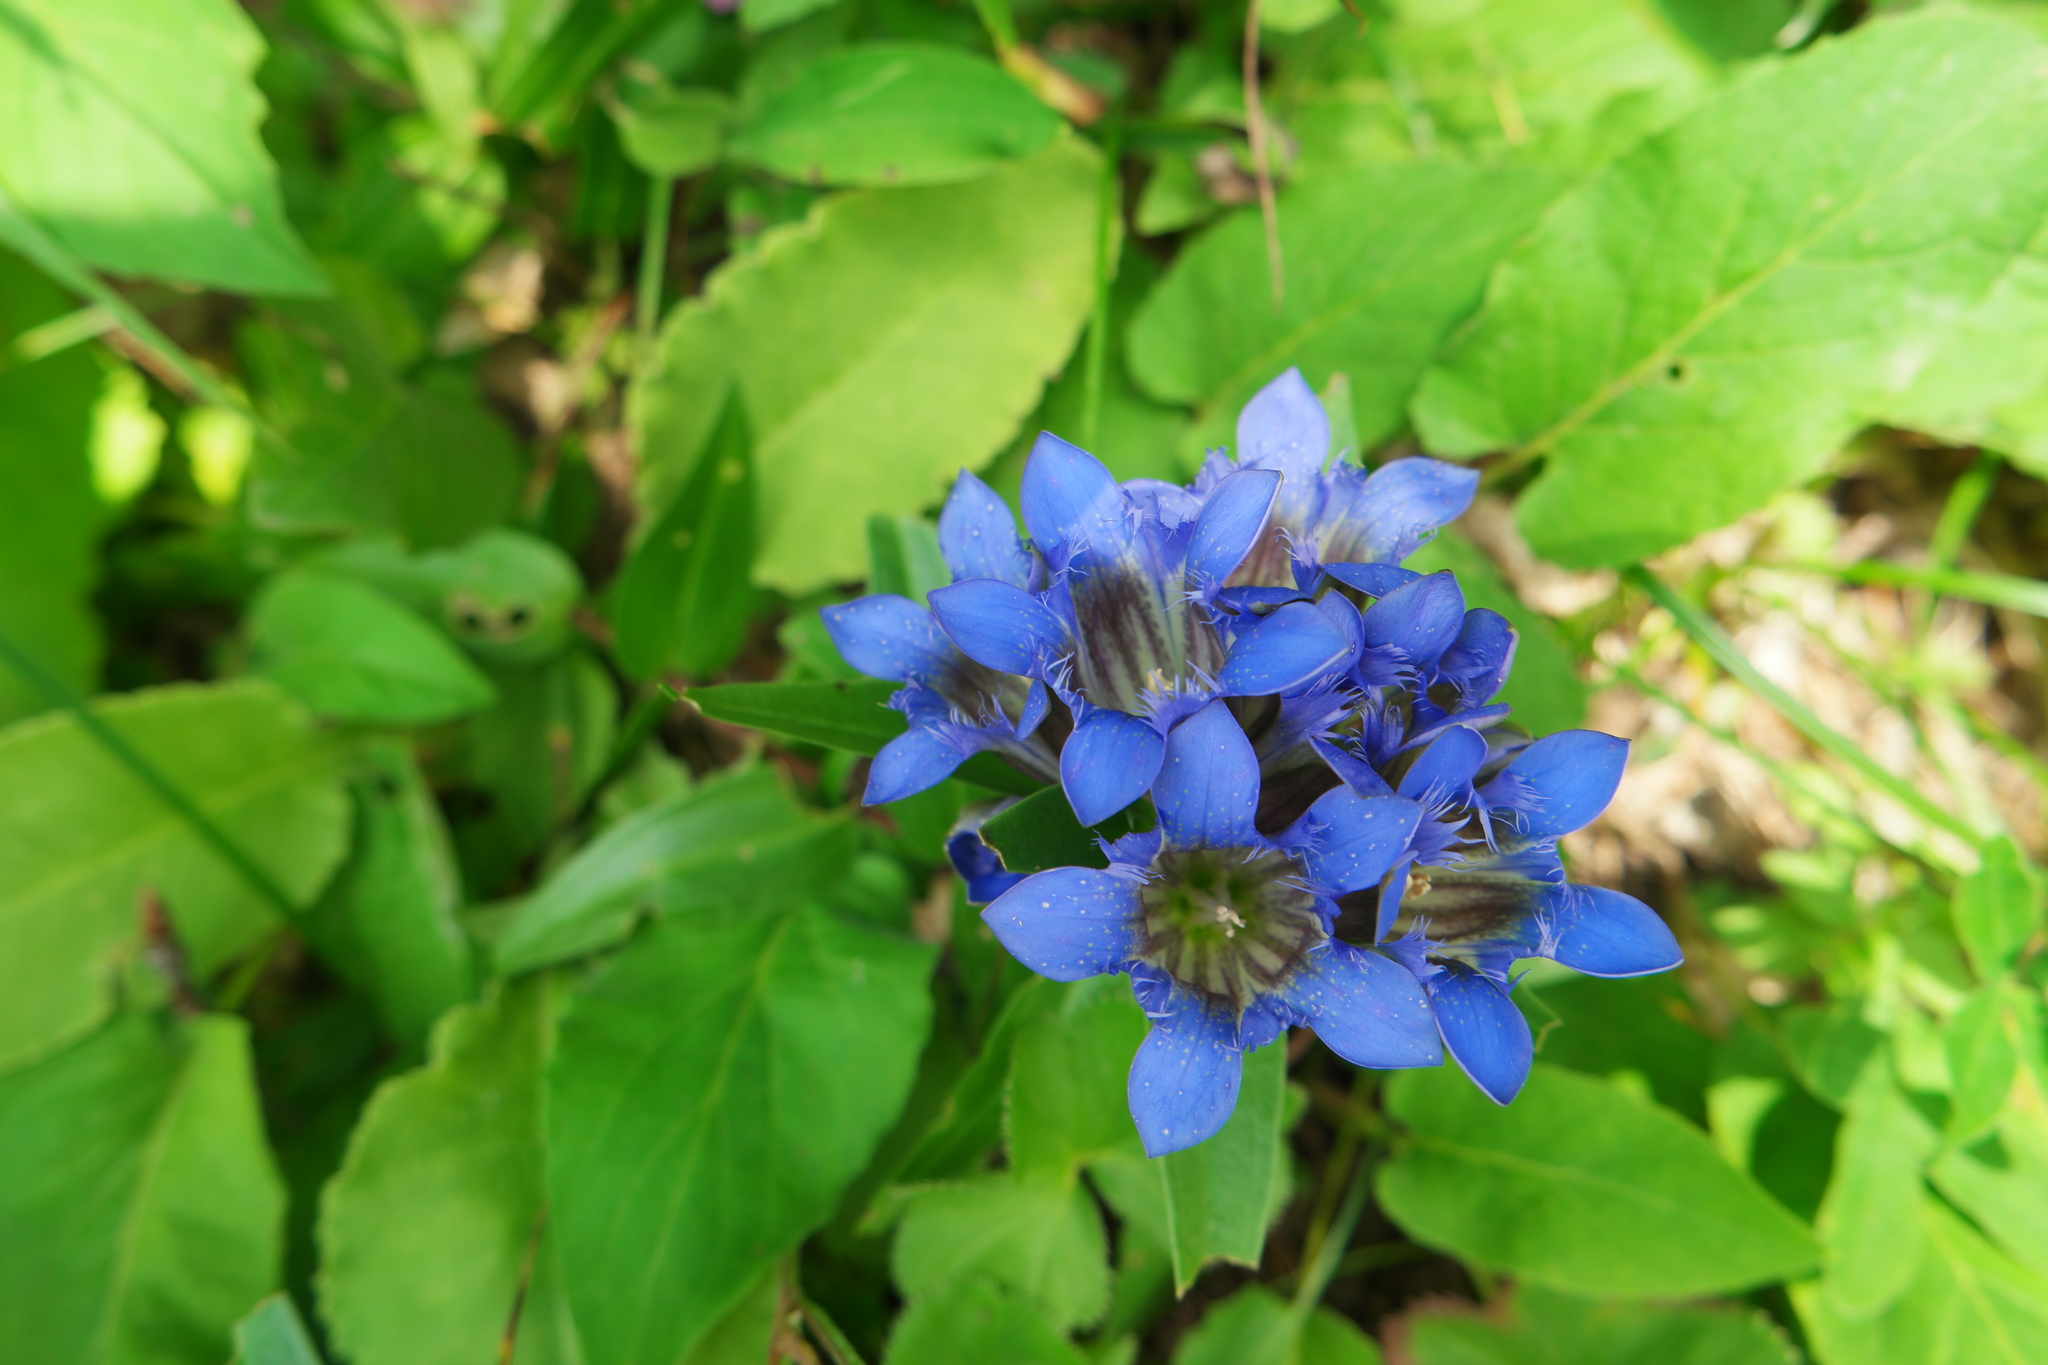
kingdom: Plantae
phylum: Tracheophyta
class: Magnoliopsida
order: Gentianales
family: Gentianaceae
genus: Gentiana
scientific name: Gentiana septemfida
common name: Crested gentian
